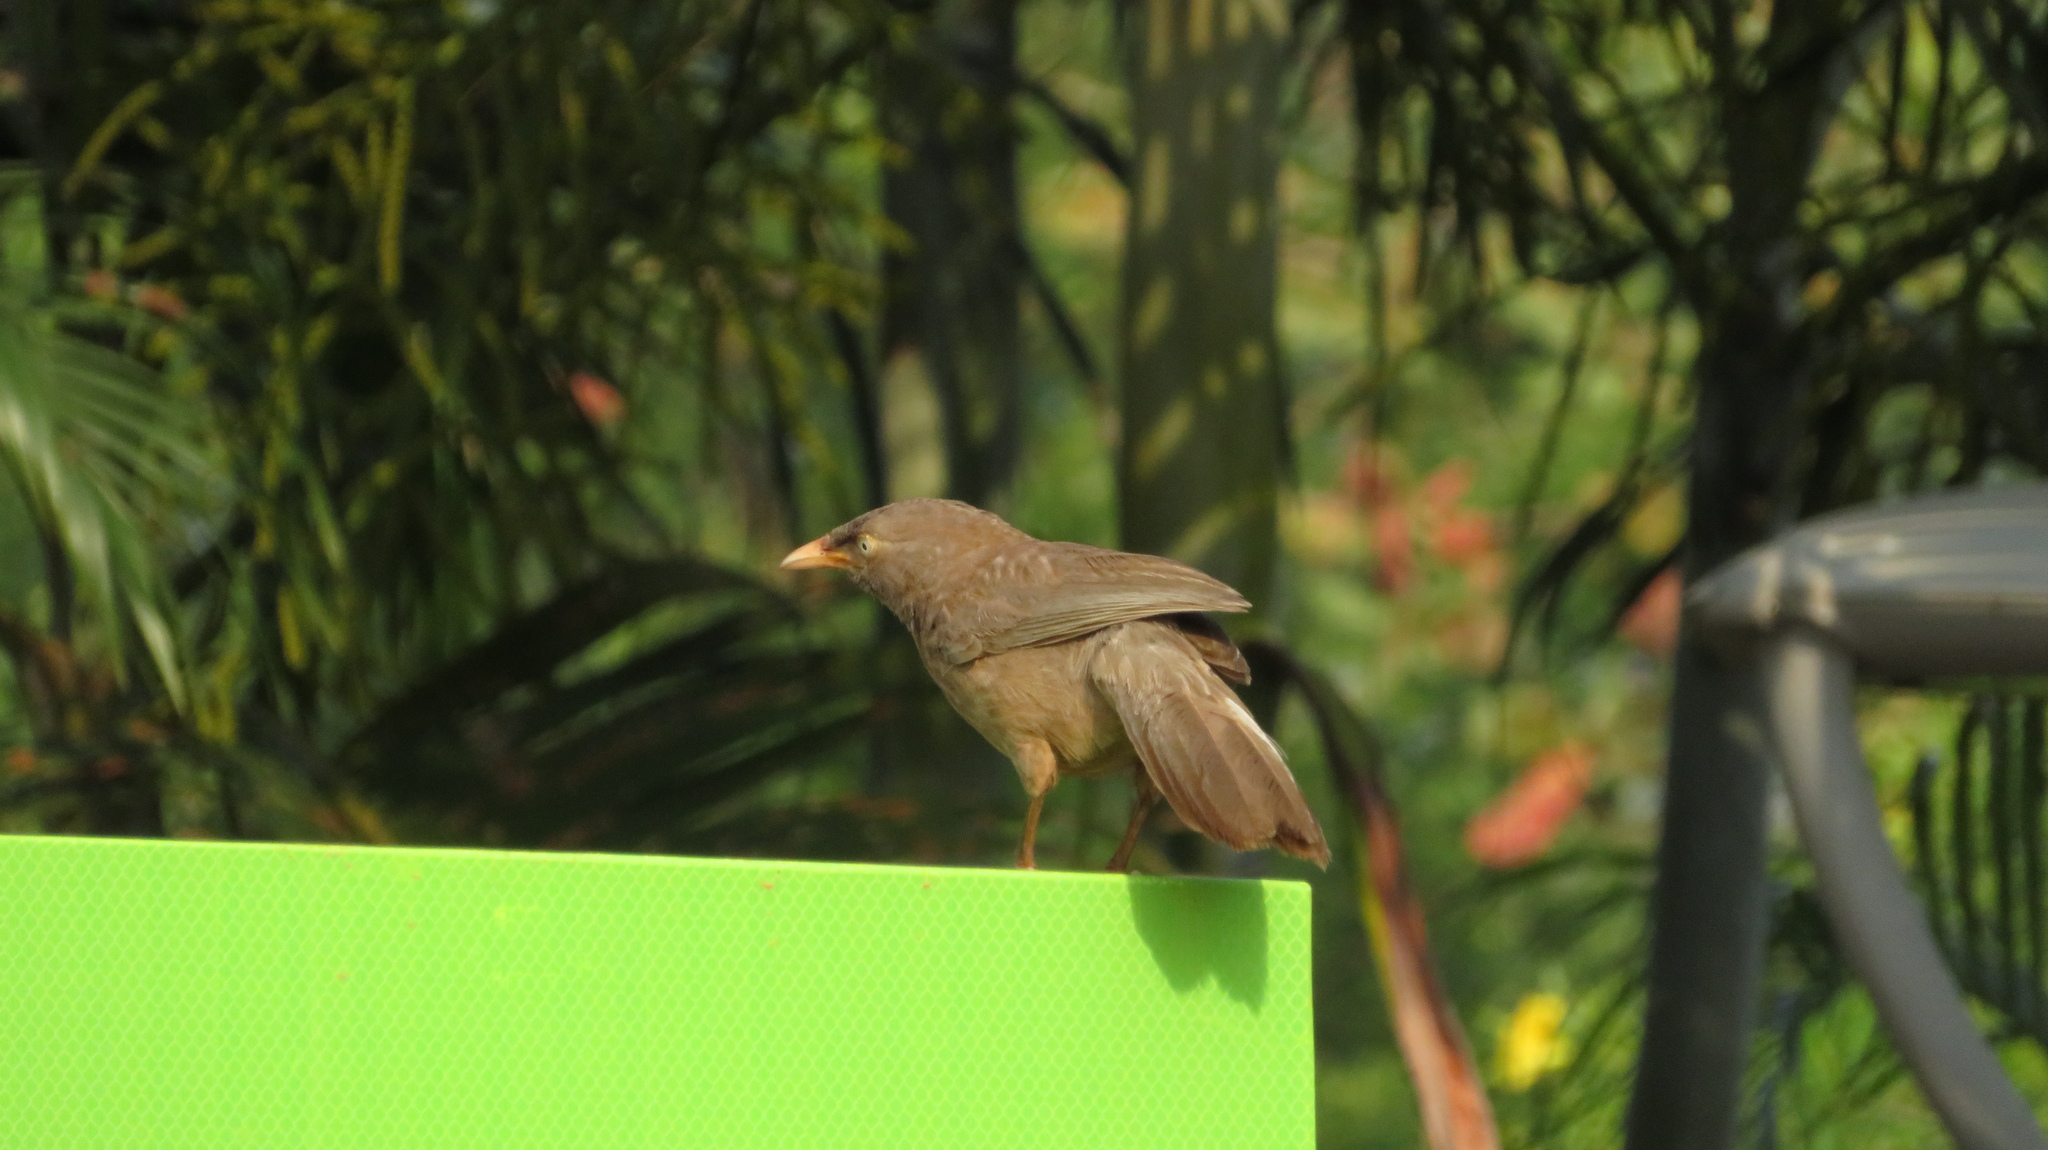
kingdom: Animalia
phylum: Chordata
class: Aves
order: Passeriformes
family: Leiothrichidae
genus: Turdoides
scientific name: Turdoides striata
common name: Jungle babbler
